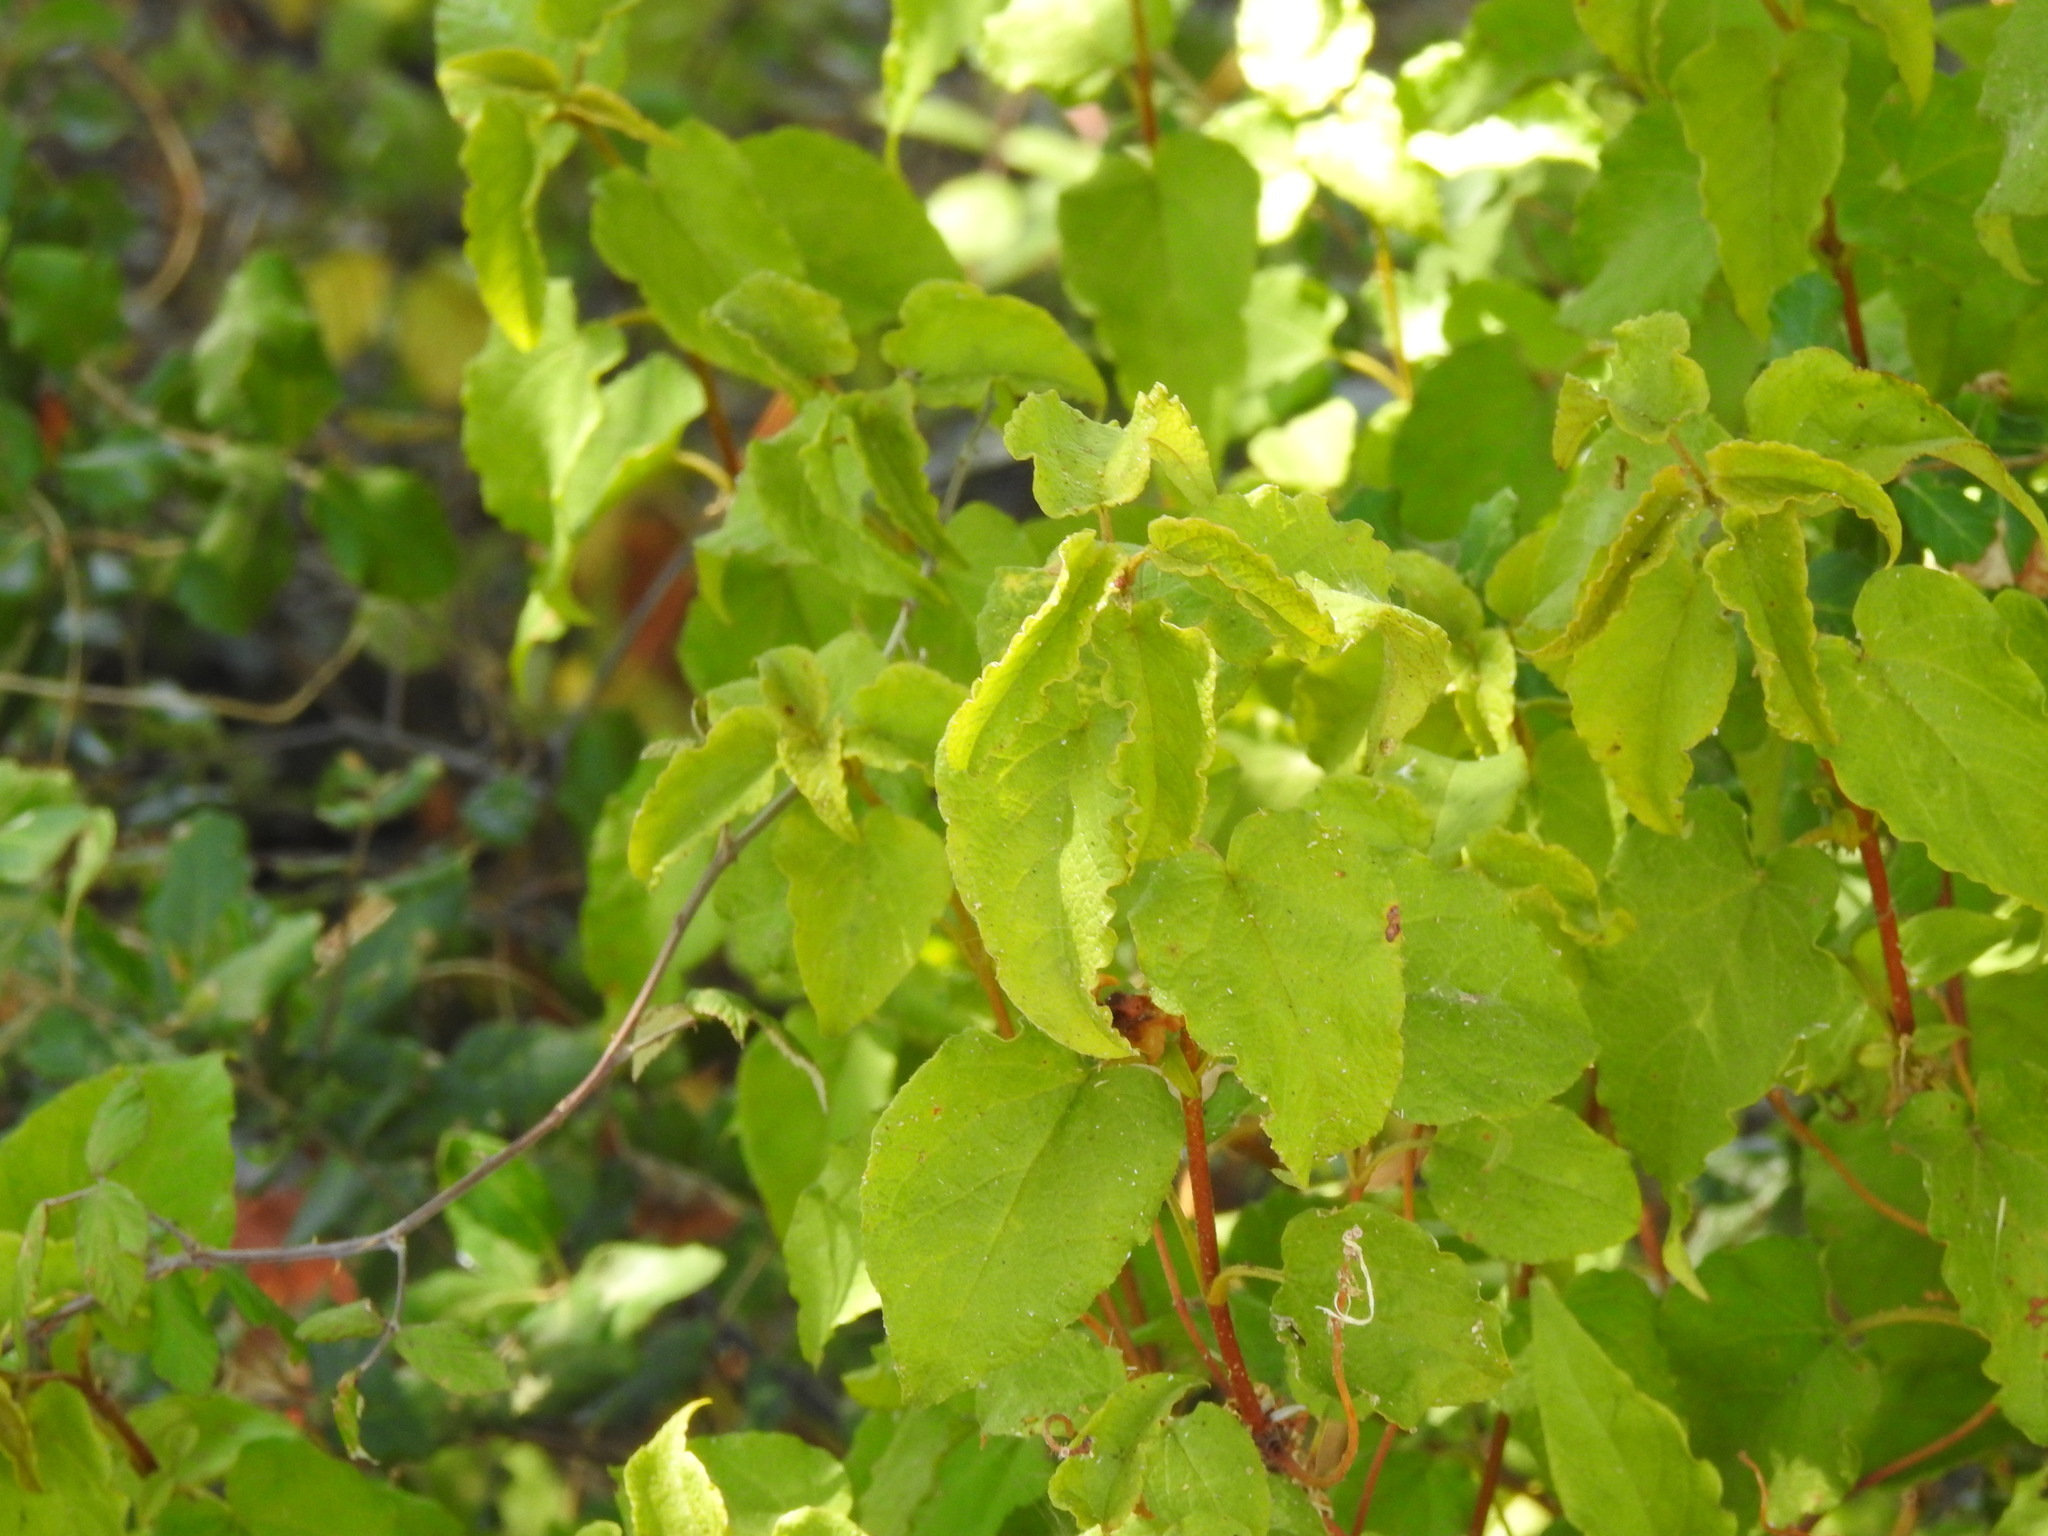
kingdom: Plantae
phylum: Tracheophyta
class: Magnoliopsida
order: Malvales
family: Cistaceae
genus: Cistus
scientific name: Cistus populifolius
